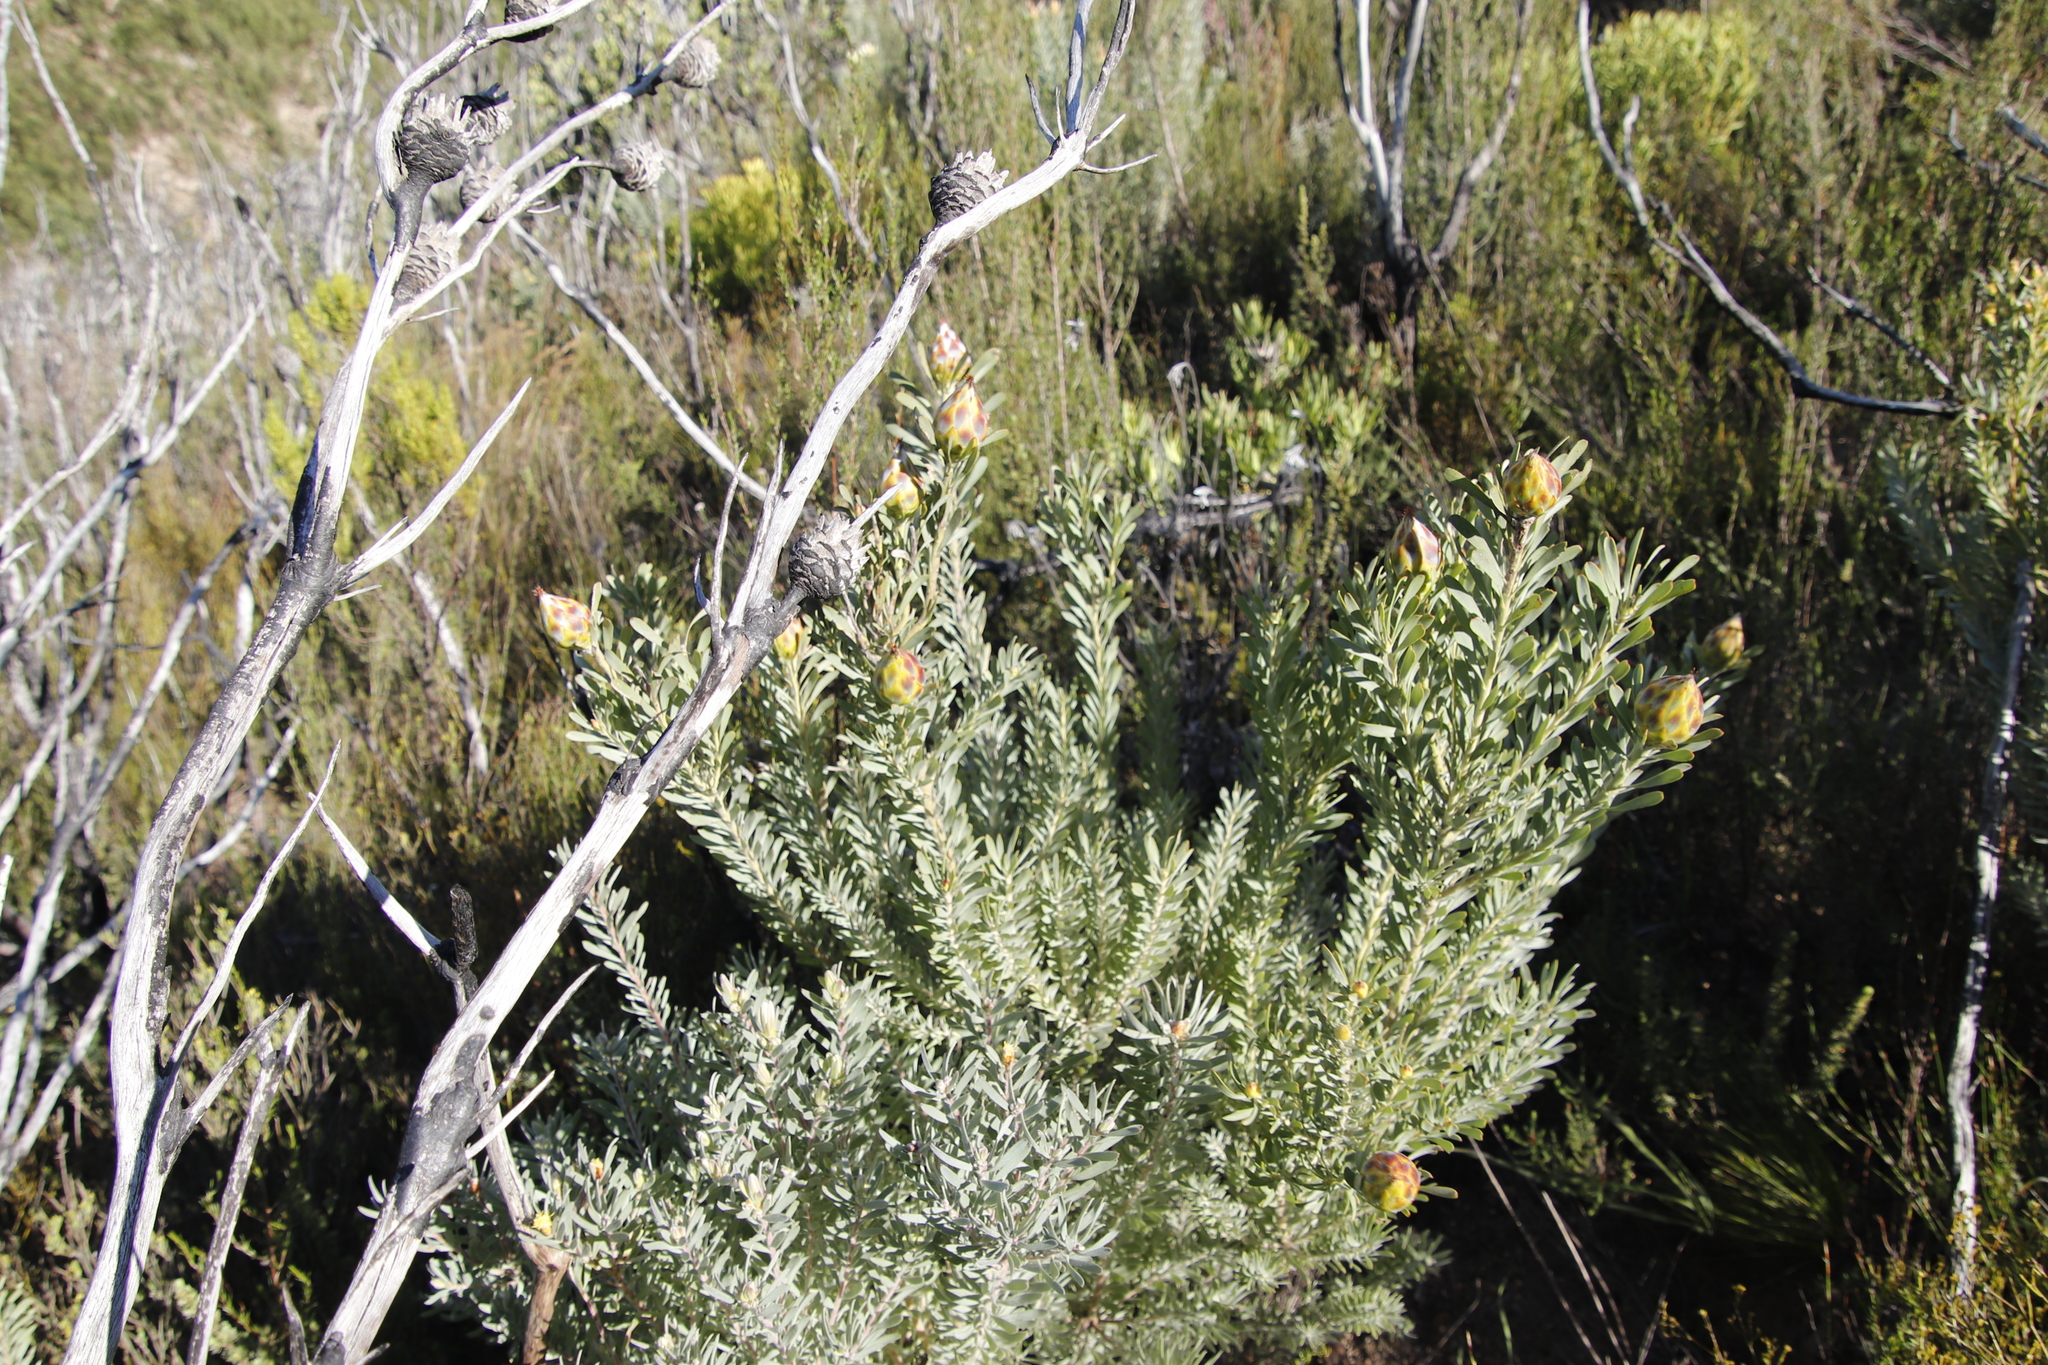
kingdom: Plantae
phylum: Tracheophyta
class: Magnoliopsida
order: Proteales
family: Proteaceae
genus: Leucadendron
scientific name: Leucadendron rubrum
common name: Spinning top
